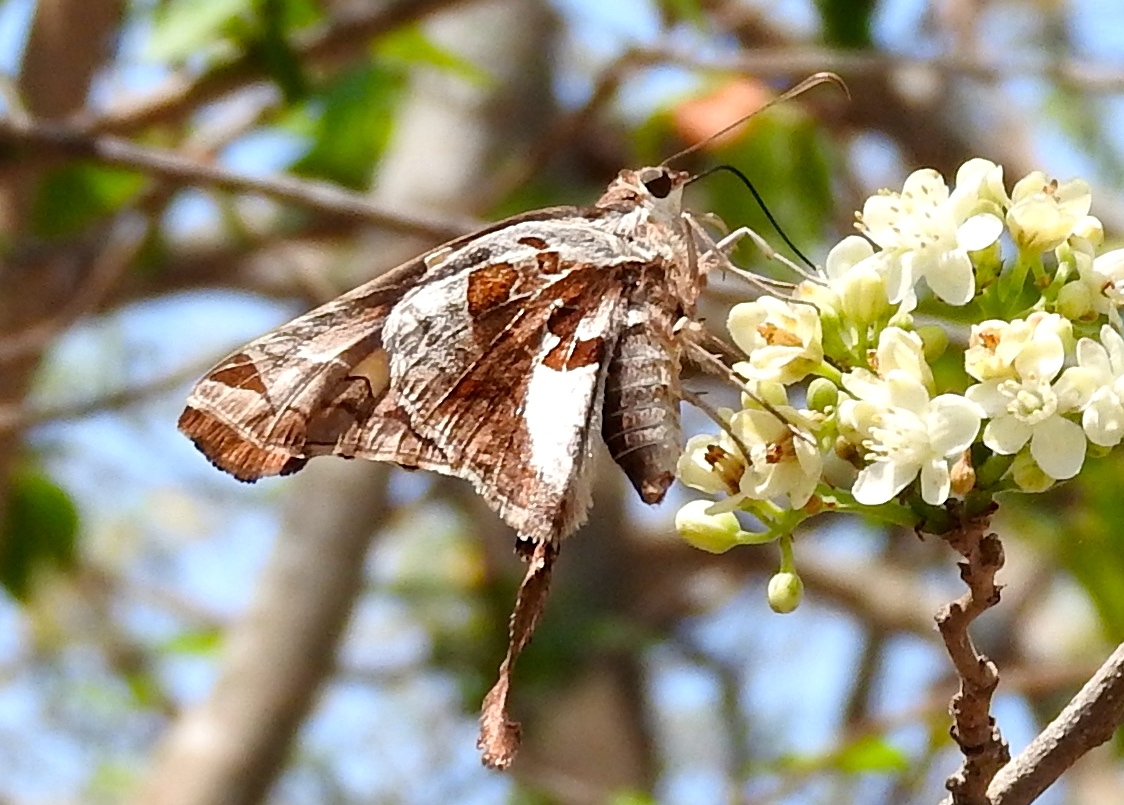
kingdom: Animalia
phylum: Arthropoda
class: Insecta
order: Lepidoptera
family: Hesperiidae
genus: Chioides
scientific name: Chioides zilpa
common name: Zilpa longtail
